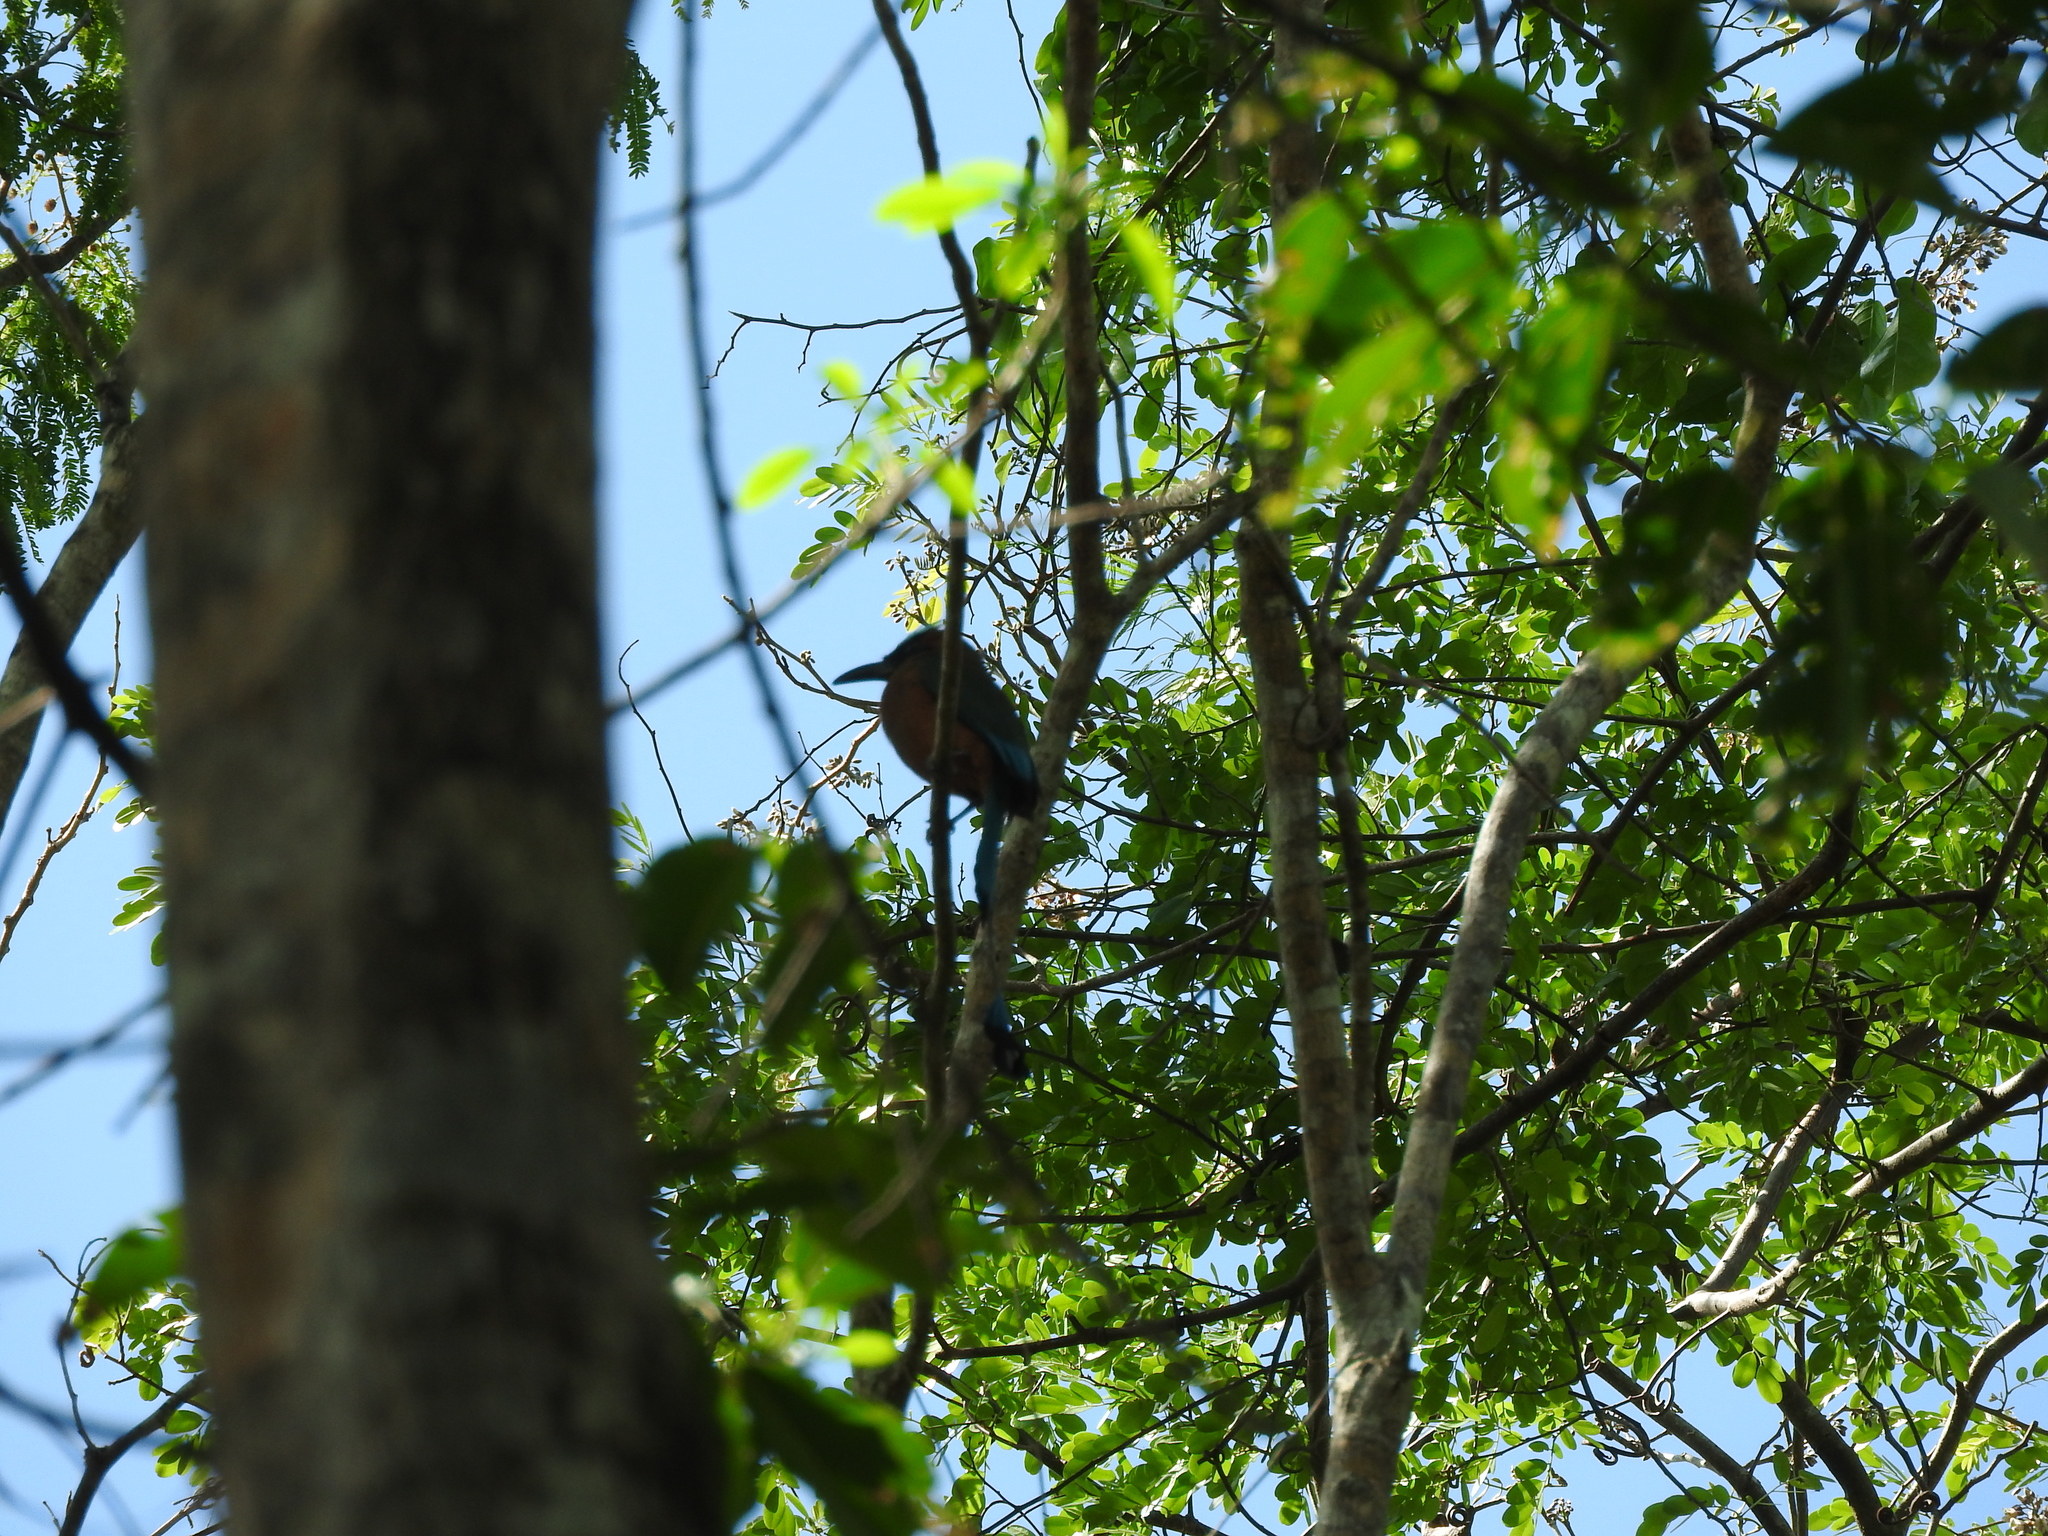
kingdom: Animalia
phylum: Chordata
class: Aves
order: Coraciiformes
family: Momotidae
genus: Eumomota
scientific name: Eumomota superciliosa
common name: Turquoise-browed motmot
